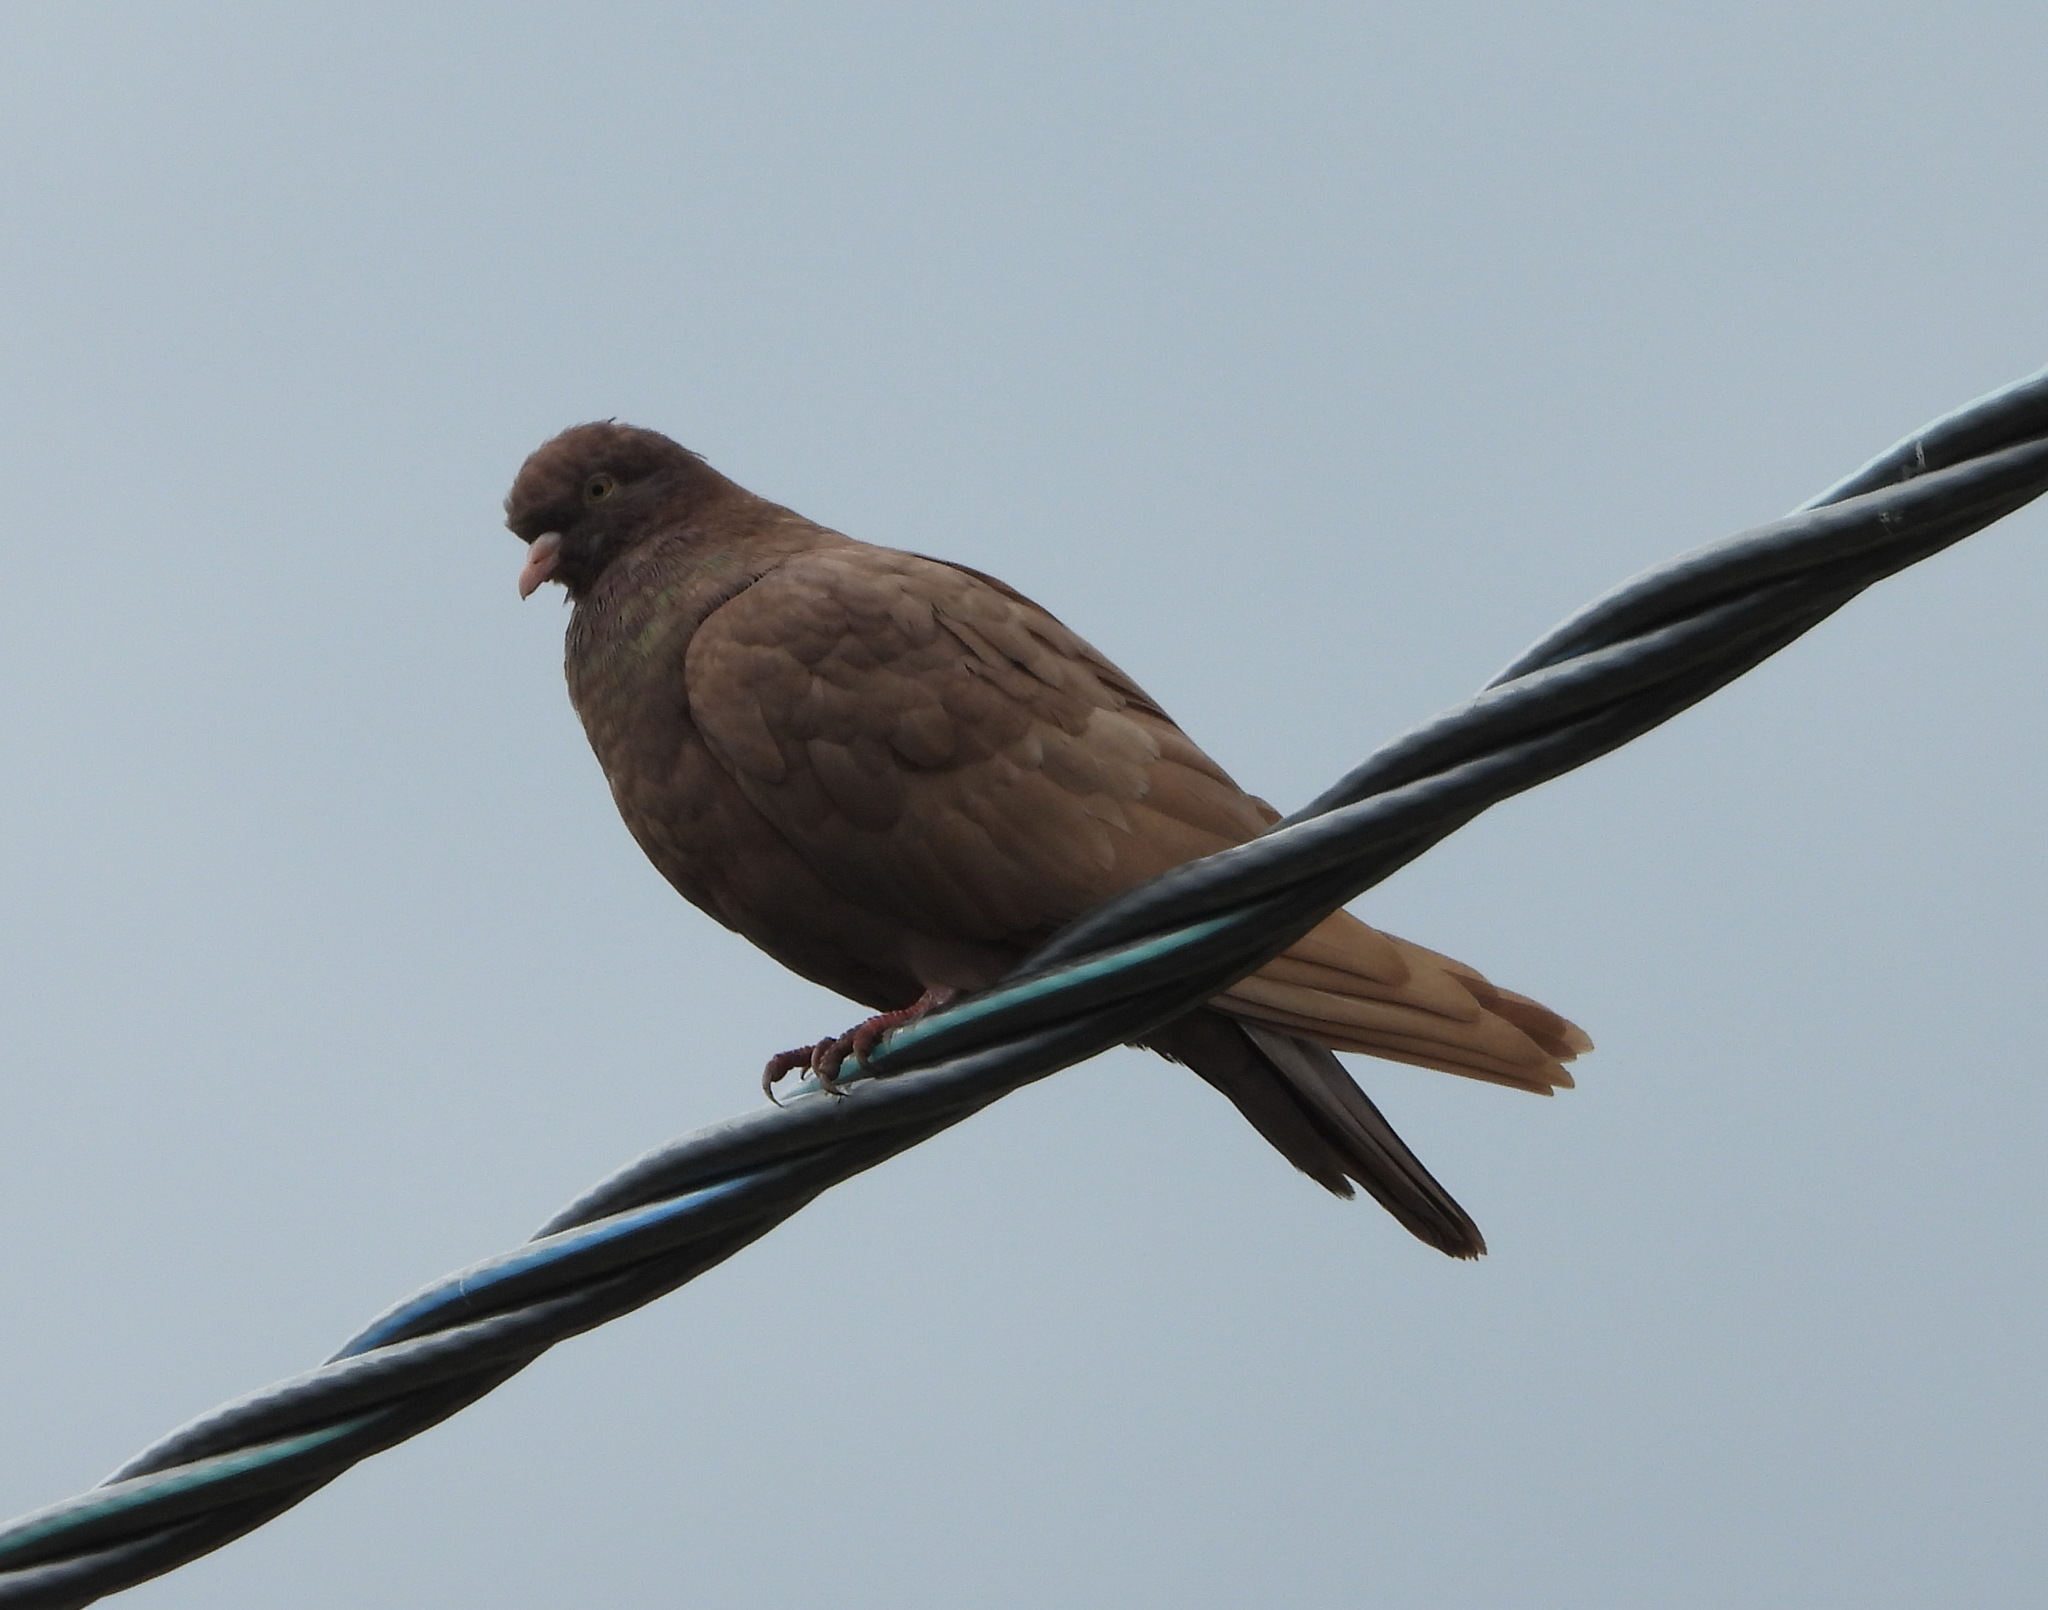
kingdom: Animalia
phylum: Chordata
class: Aves
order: Columbiformes
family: Columbidae
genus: Columba
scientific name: Columba livia
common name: Rock pigeon
